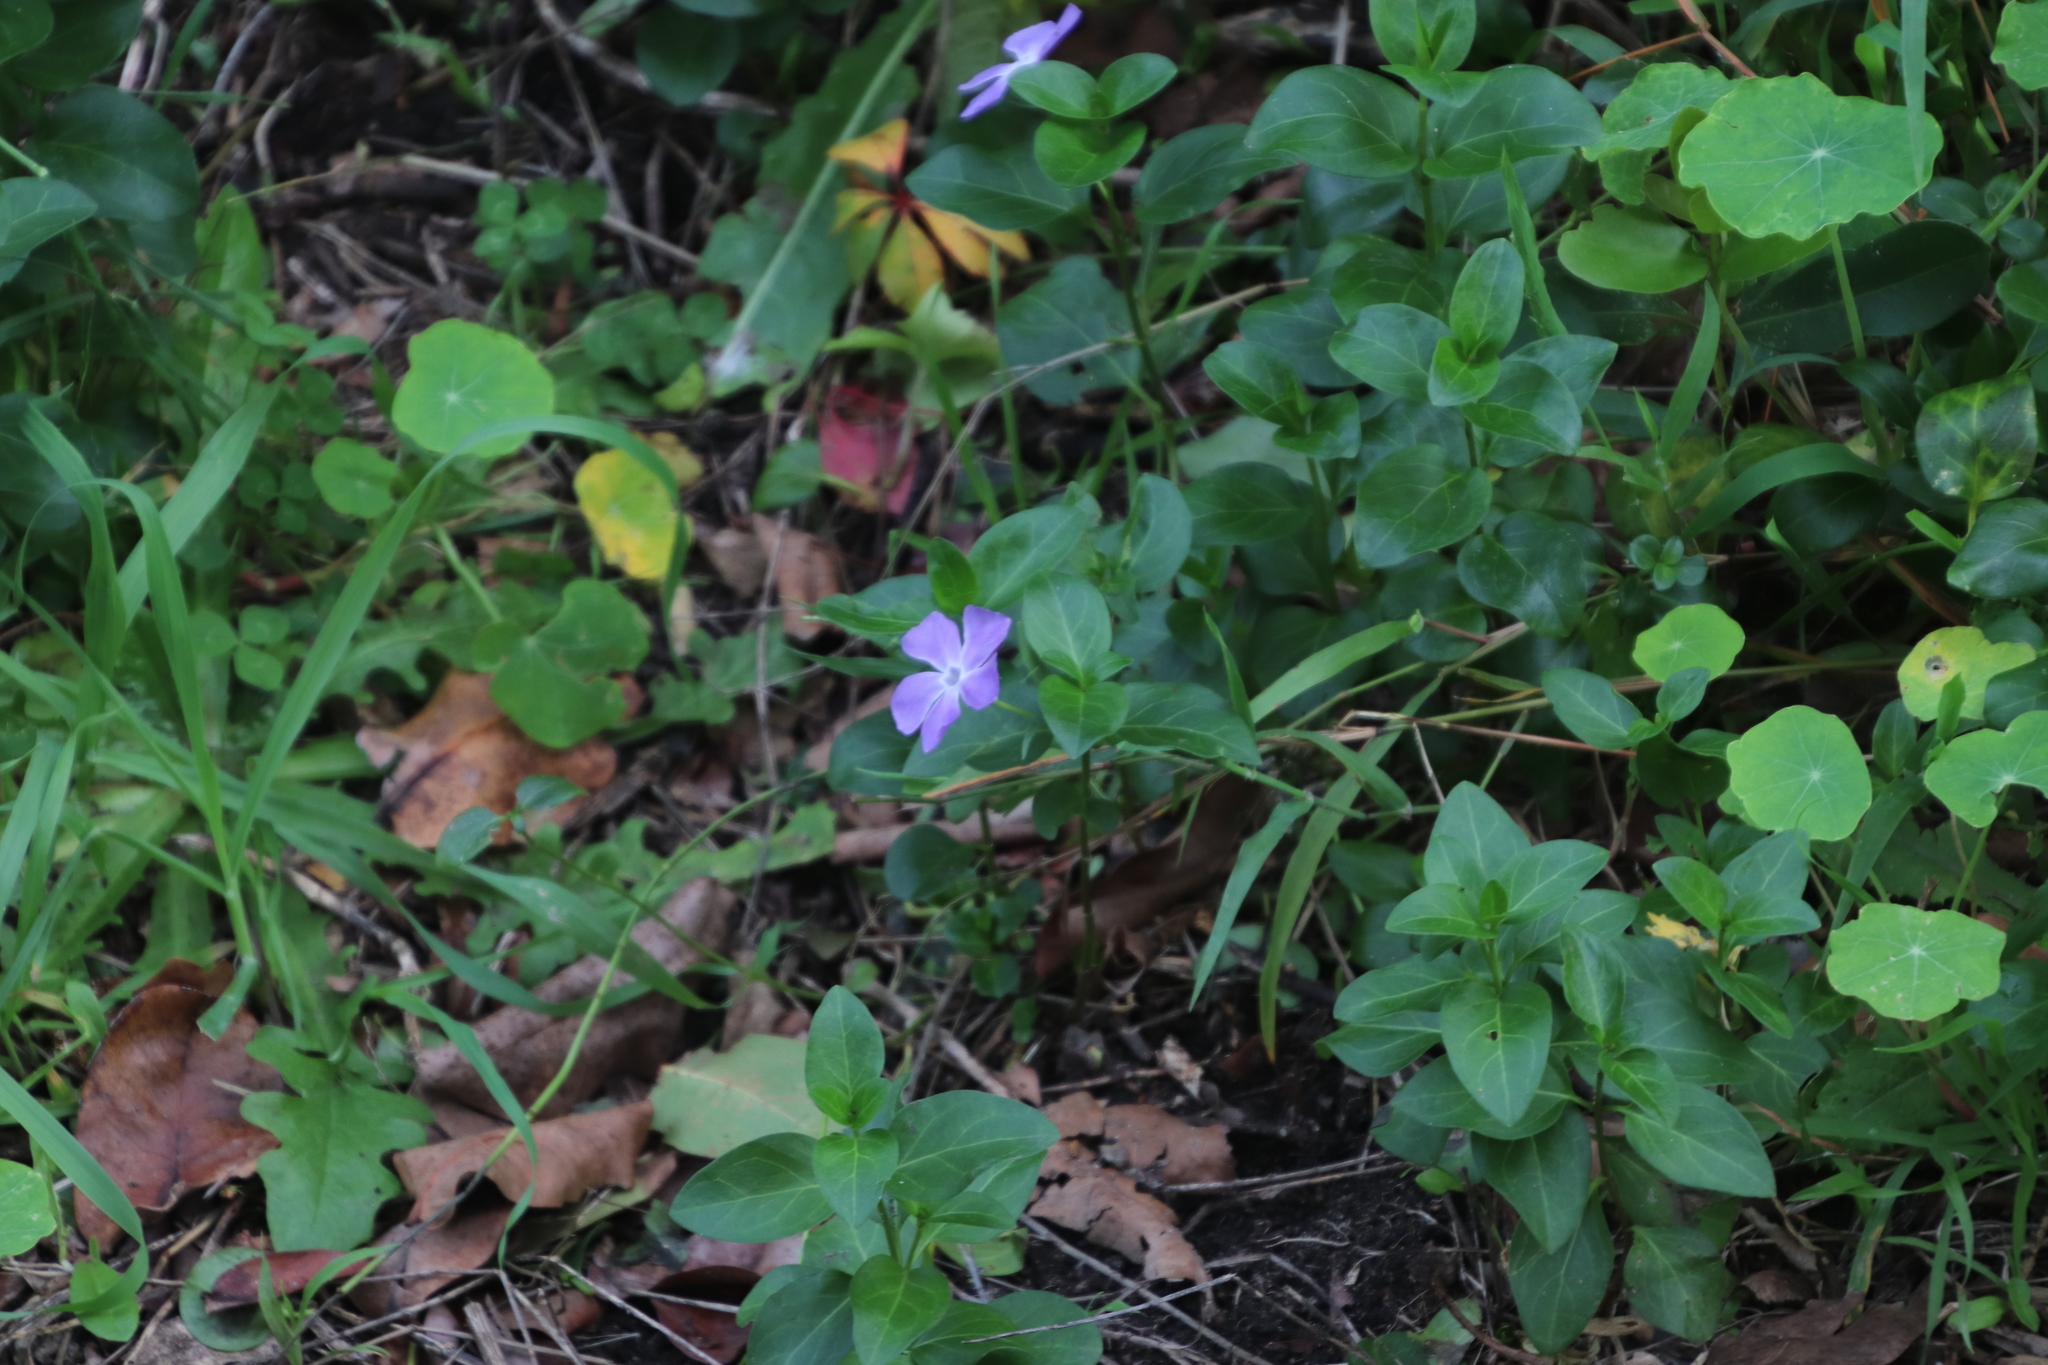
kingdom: Plantae
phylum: Tracheophyta
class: Magnoliopsida
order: Gentianales
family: Apocynaceae
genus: Vinca
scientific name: Vinca major
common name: Greater periwinkle
